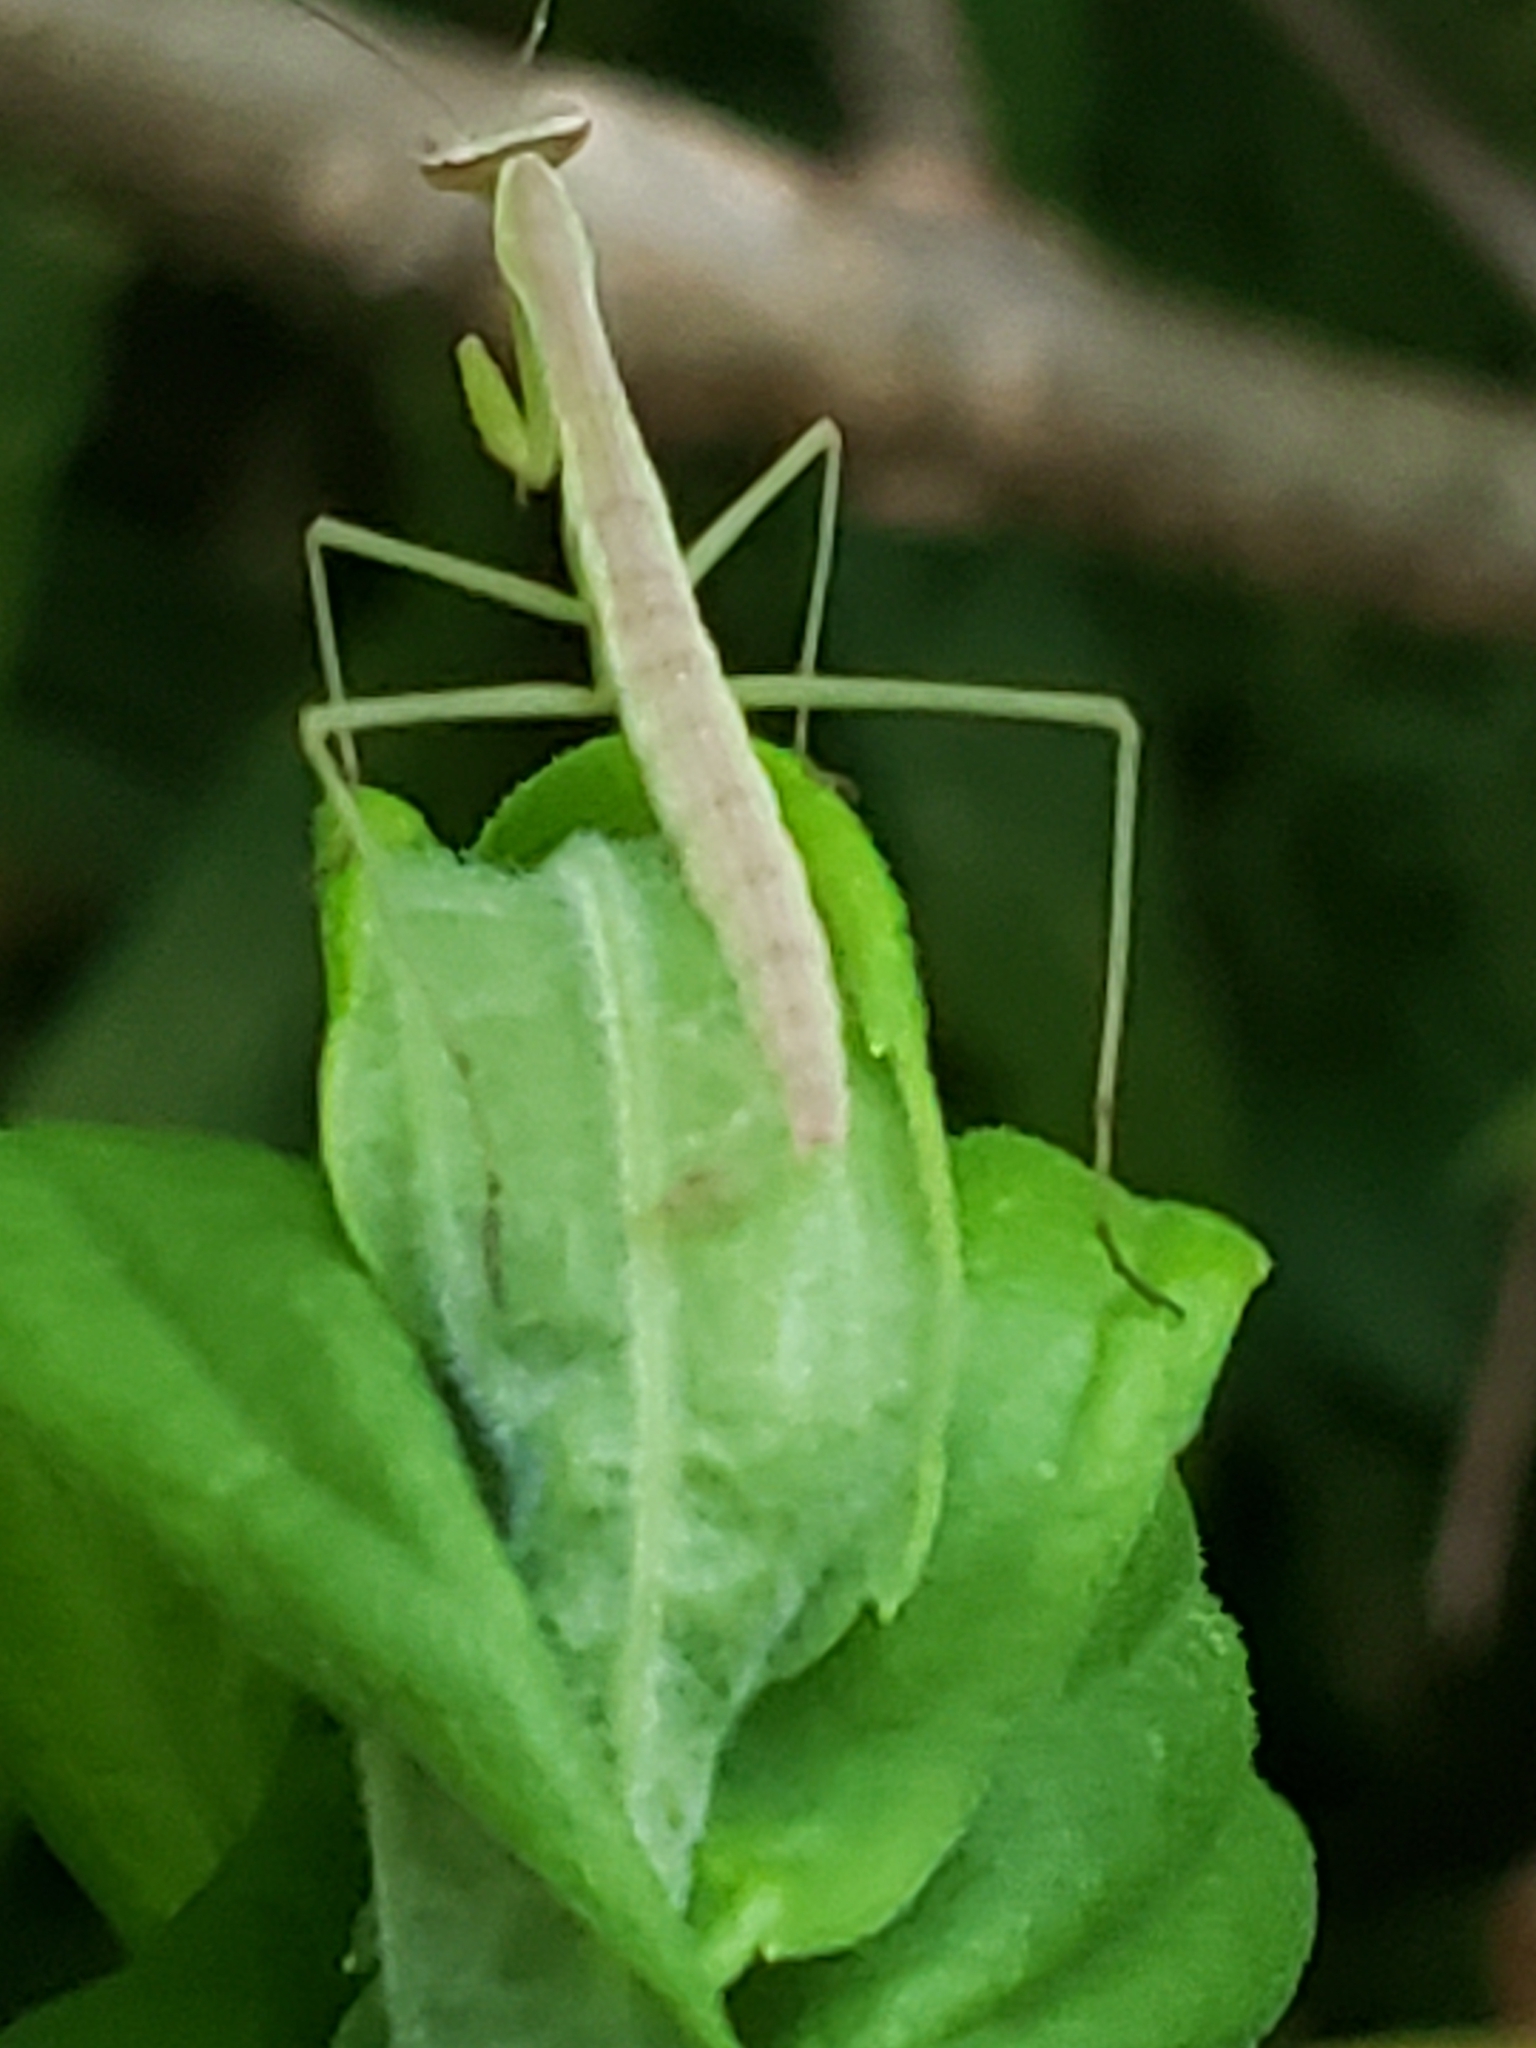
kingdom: Animalia
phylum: Arthropoda
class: Insecta
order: Mantodea
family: Mantidae
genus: Tenodera
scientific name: Tenodera sinensis
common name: Chinese mantis
